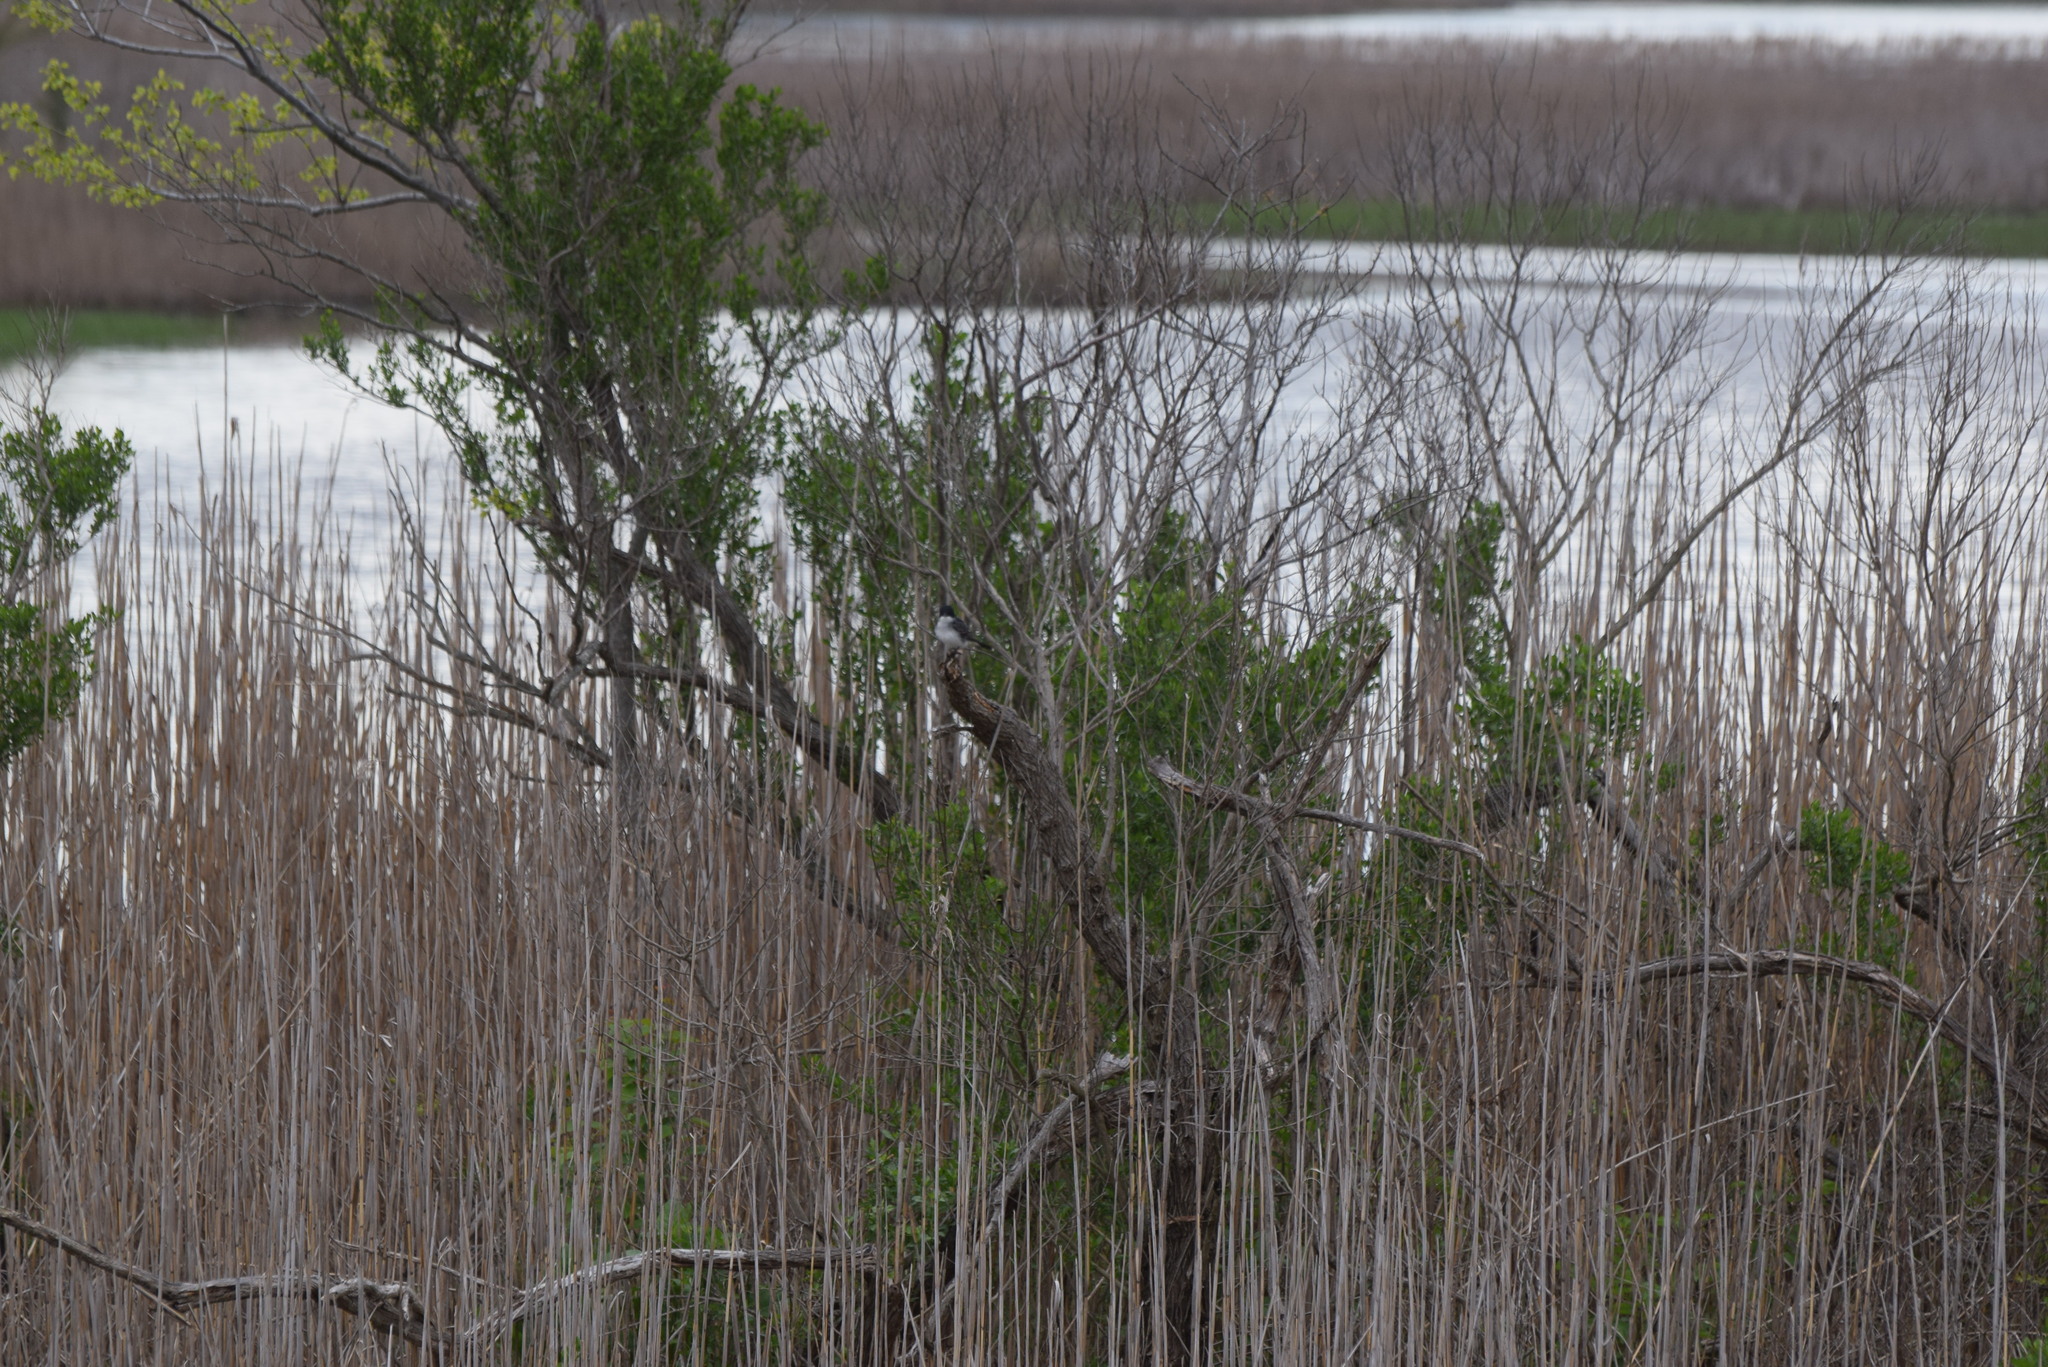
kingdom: Animalia
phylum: Chordata
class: Aves
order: Passeriformes
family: Tyrannidae
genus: Tyrannus
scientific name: Tyrannus tyrannus
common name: Eastern kingbird
